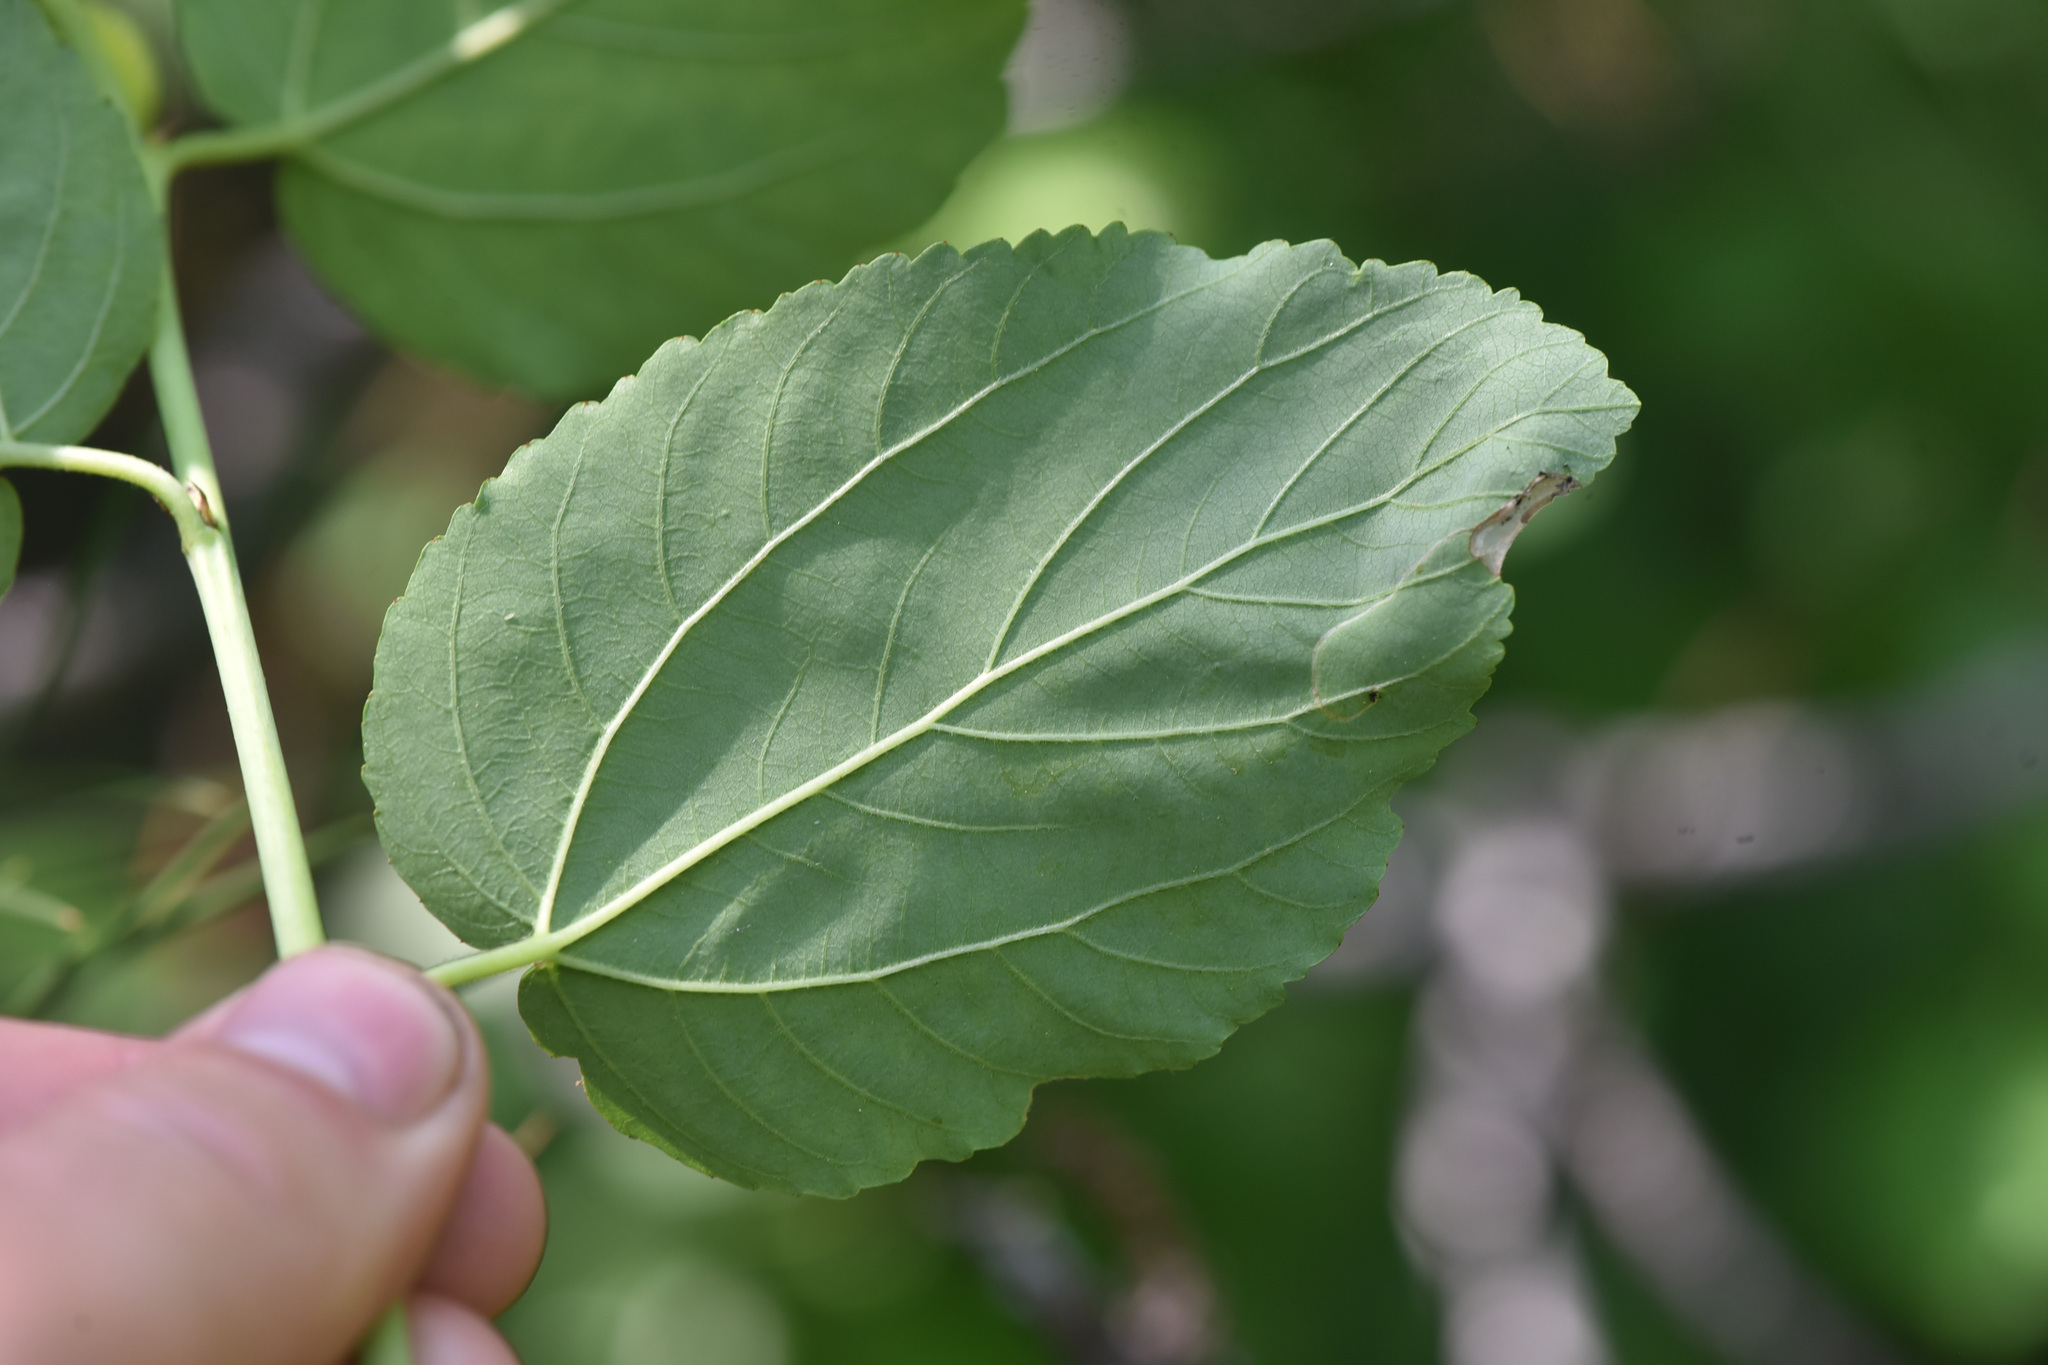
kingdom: Plantae
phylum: Tracheophyta
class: Magnoliopsida
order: Rosales
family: Rhamnaceae
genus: Ceanothus
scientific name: Ceanothus sanguineus
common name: Teatree
